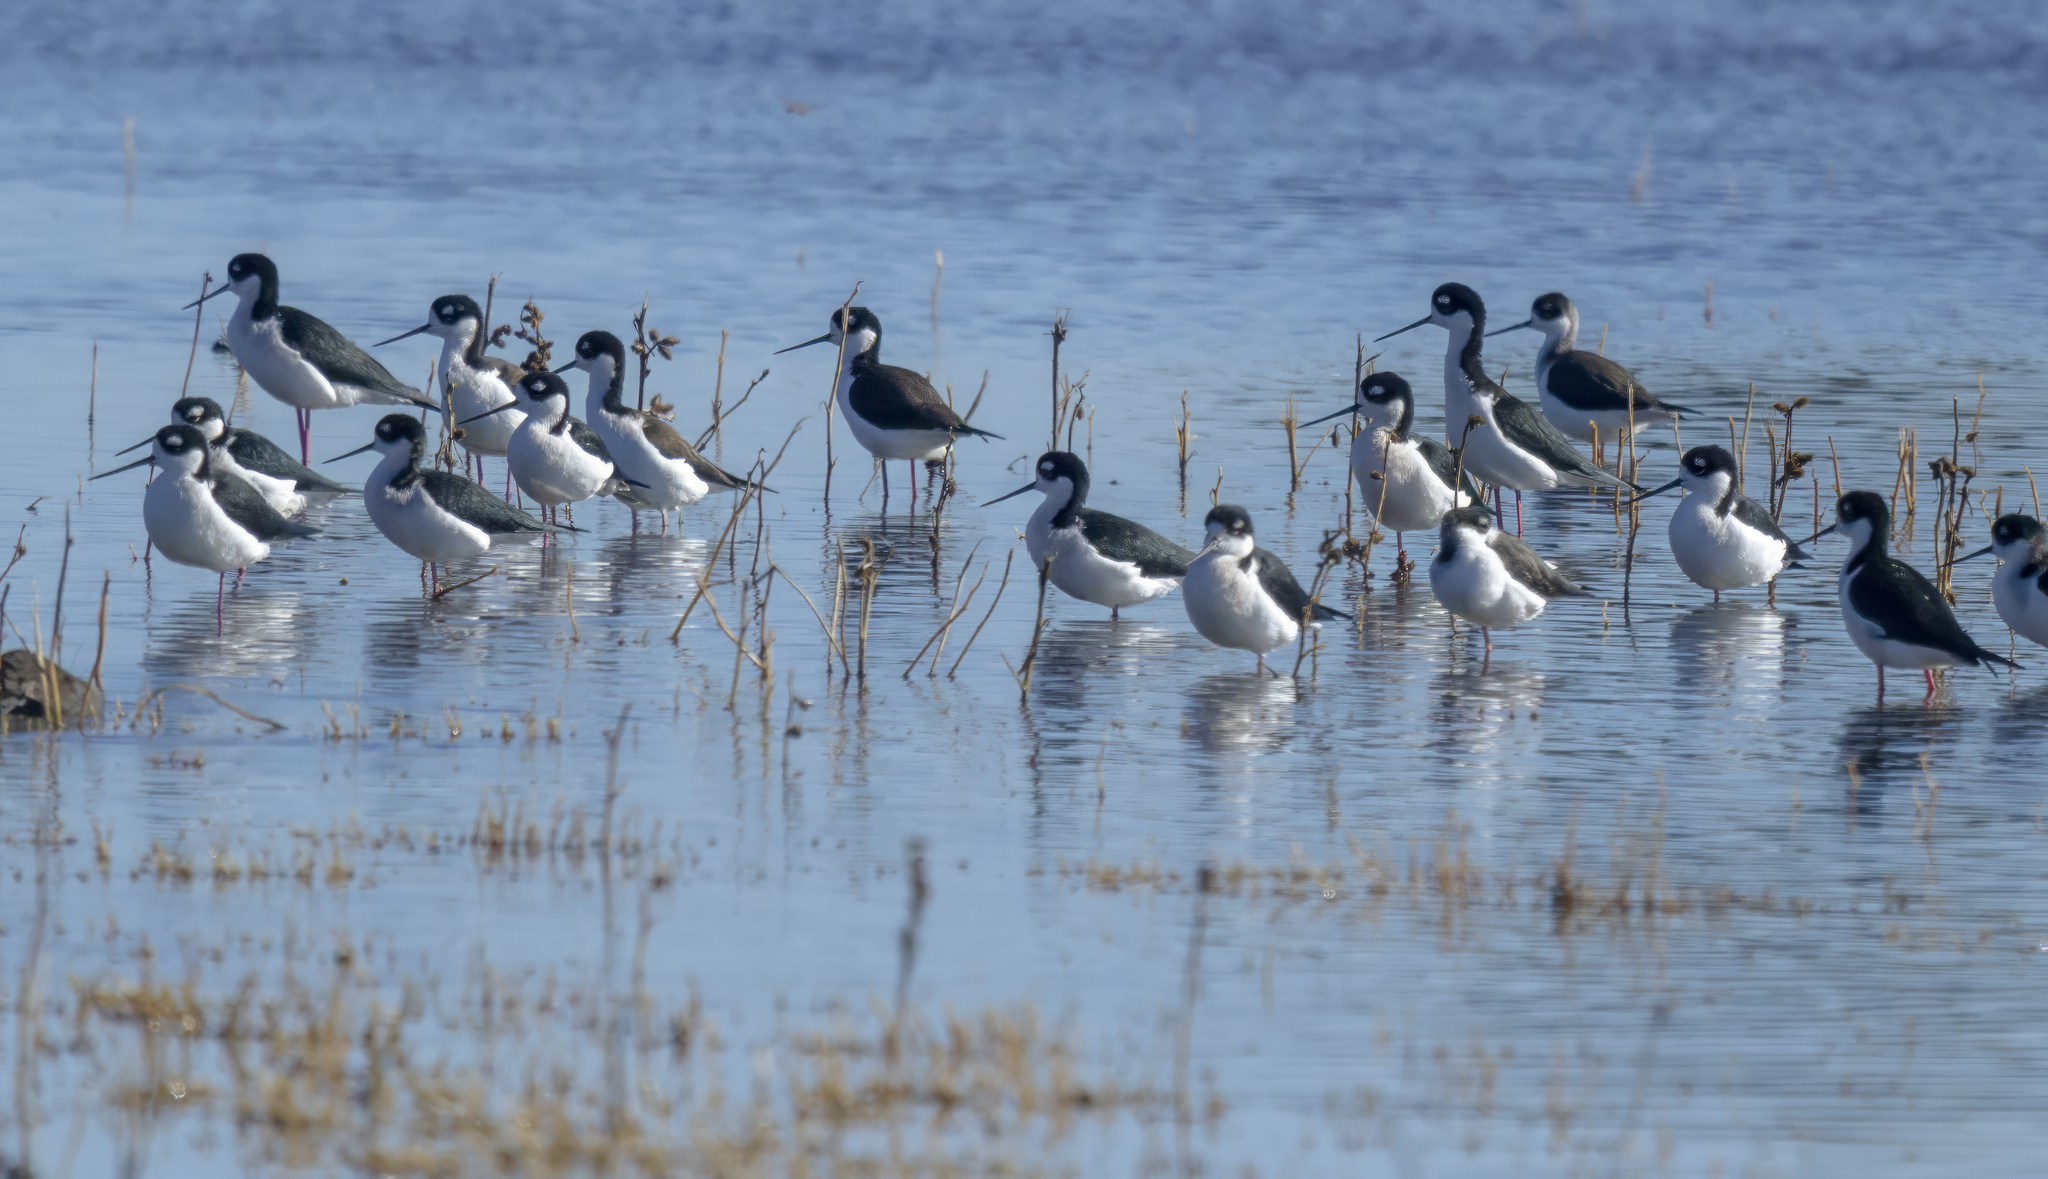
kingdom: Animalia
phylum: Chordata
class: Aves
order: Charadriiformes
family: Recurvirostridae
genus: Himantopus
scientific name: Himantopus mexicanus
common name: Black-necked stilt
